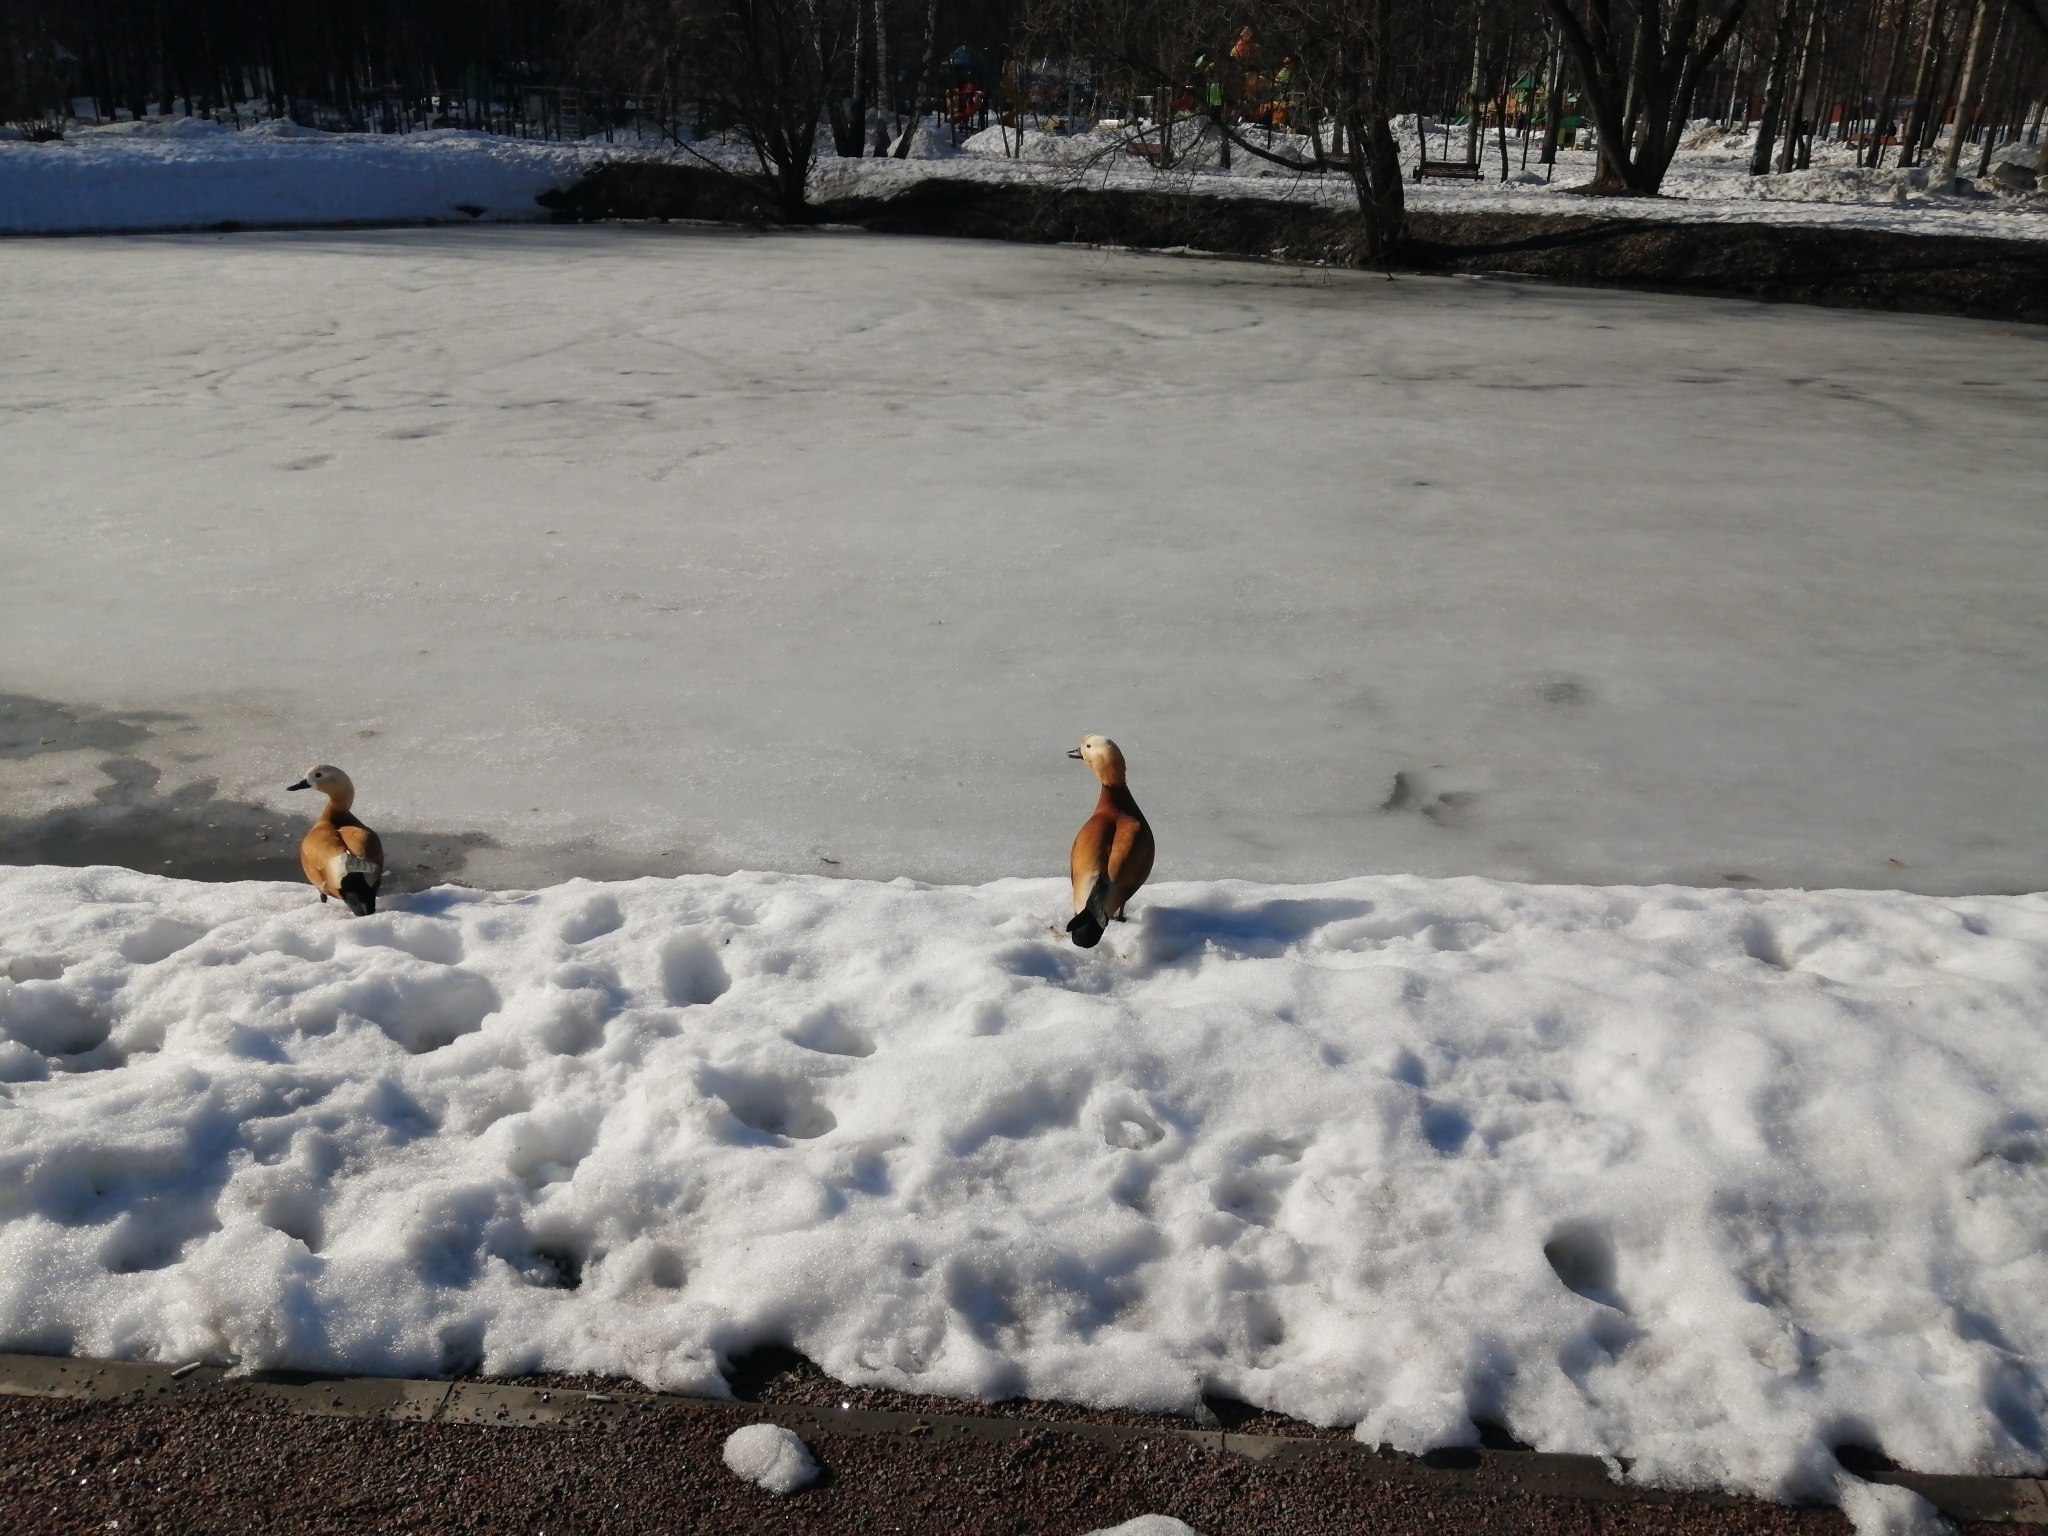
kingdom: Animalia
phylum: Chordata
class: Aves
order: Anseriformes
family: Anatidae
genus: Tadorna
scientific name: Tadorna ferruginea
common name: Ruddy shelduck
